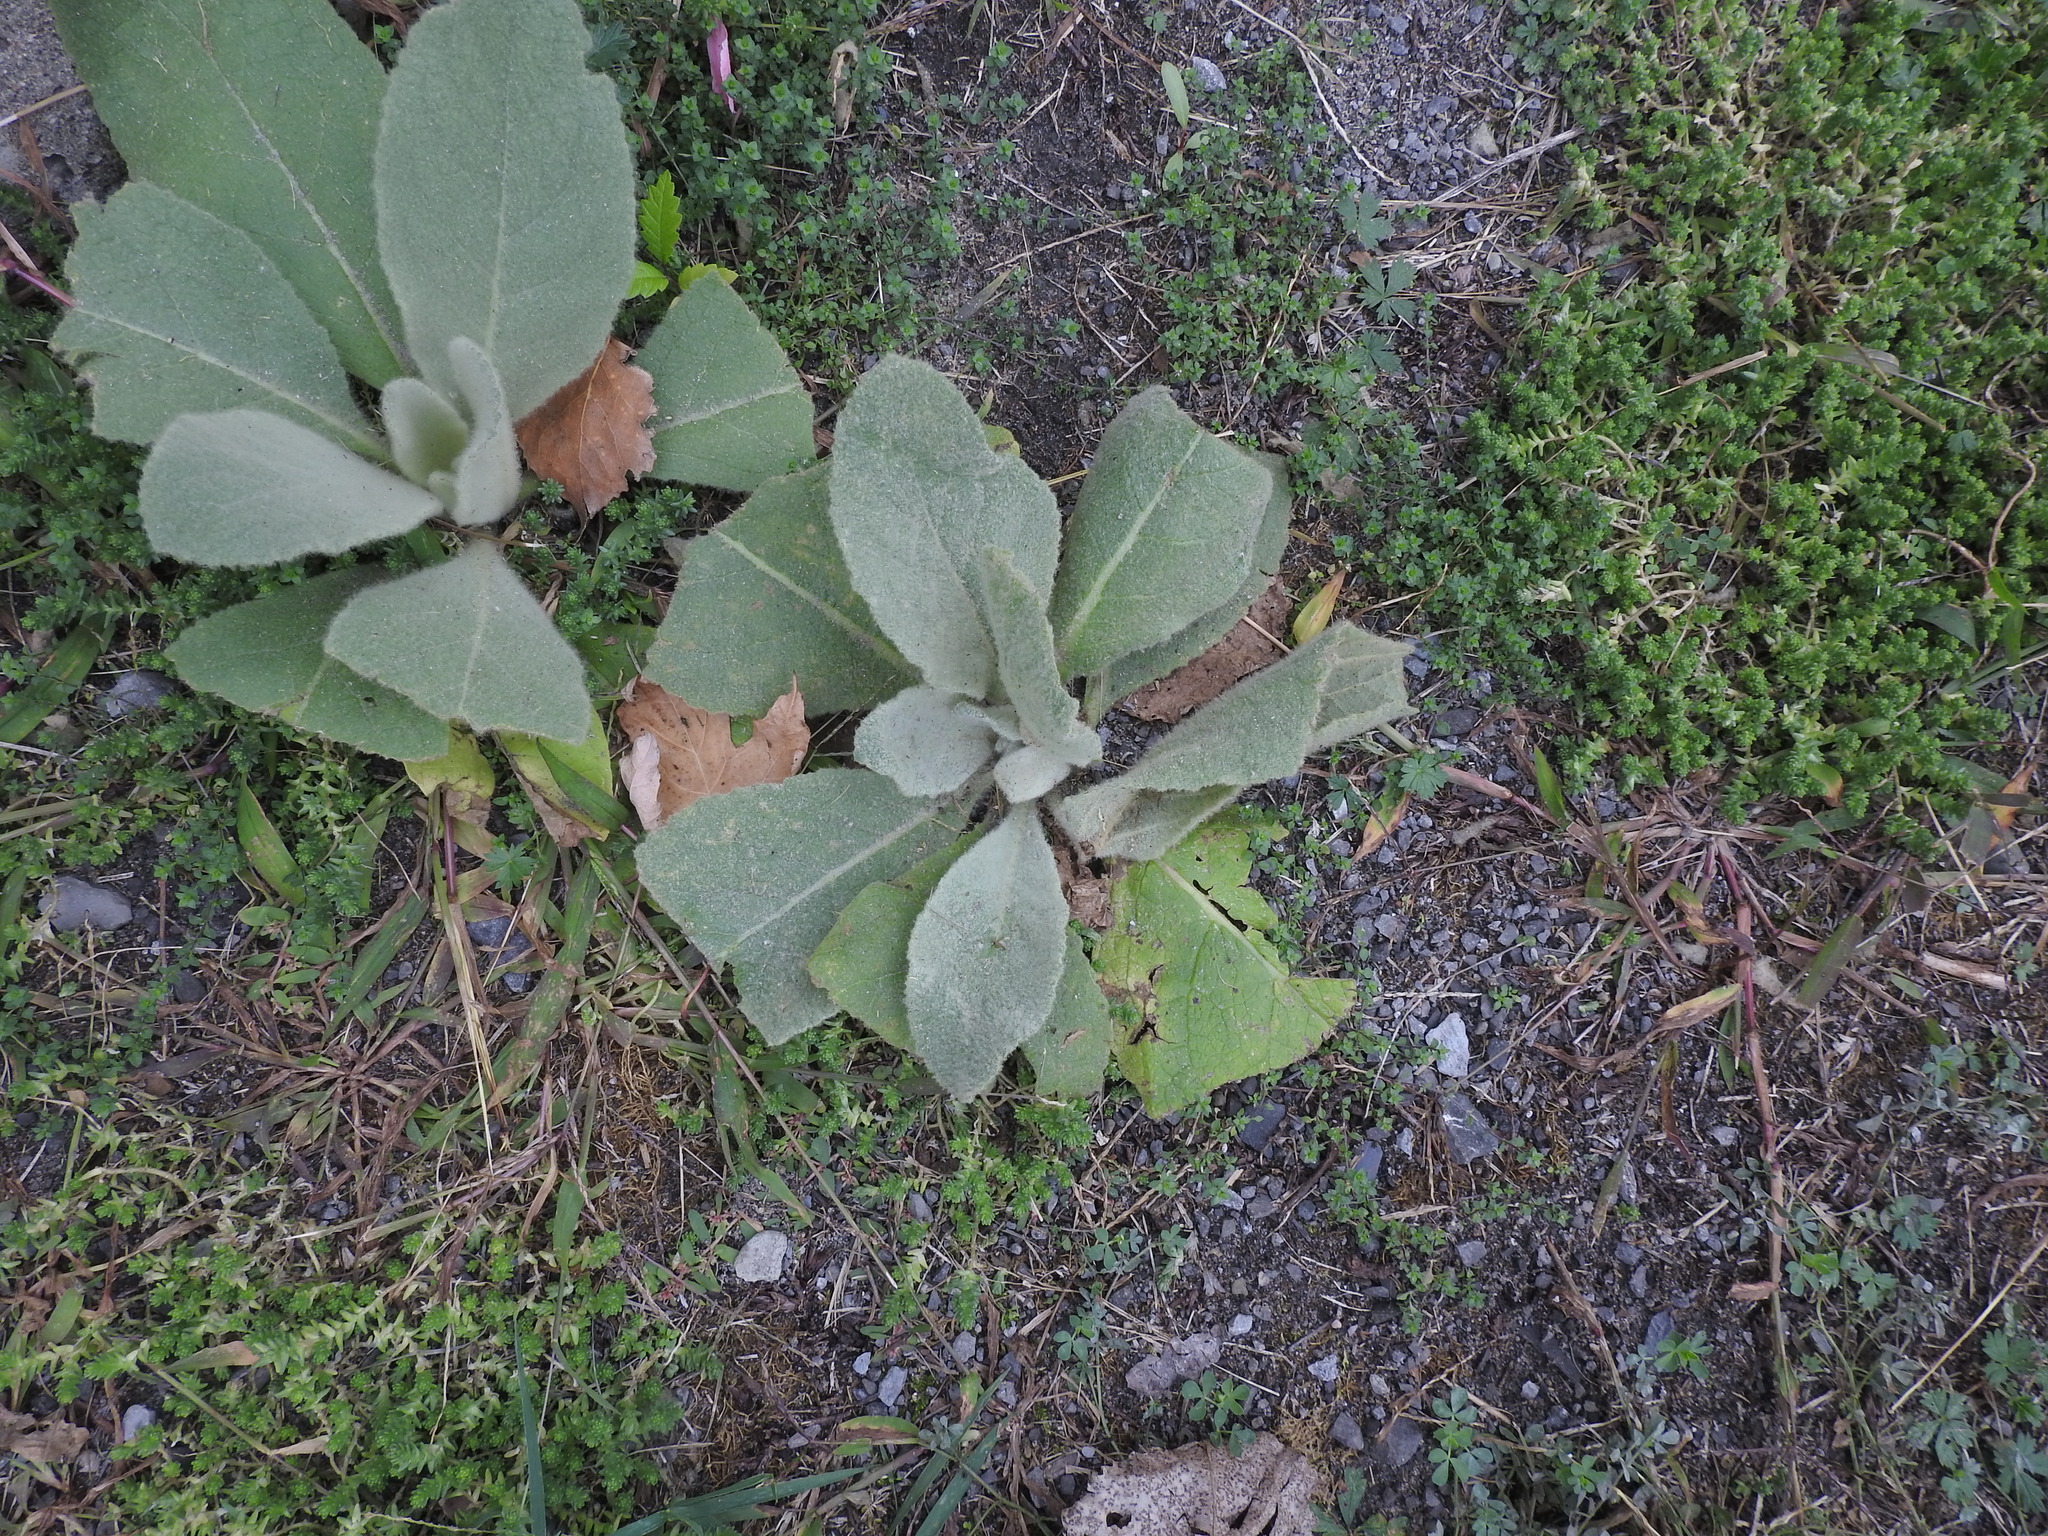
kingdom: Plantae
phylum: Tracheophyta
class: Magnoliopsida
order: Lamiales
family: Scrophulariaceae
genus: Verbascum
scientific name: Verbascum thapsus
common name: Common mullein
